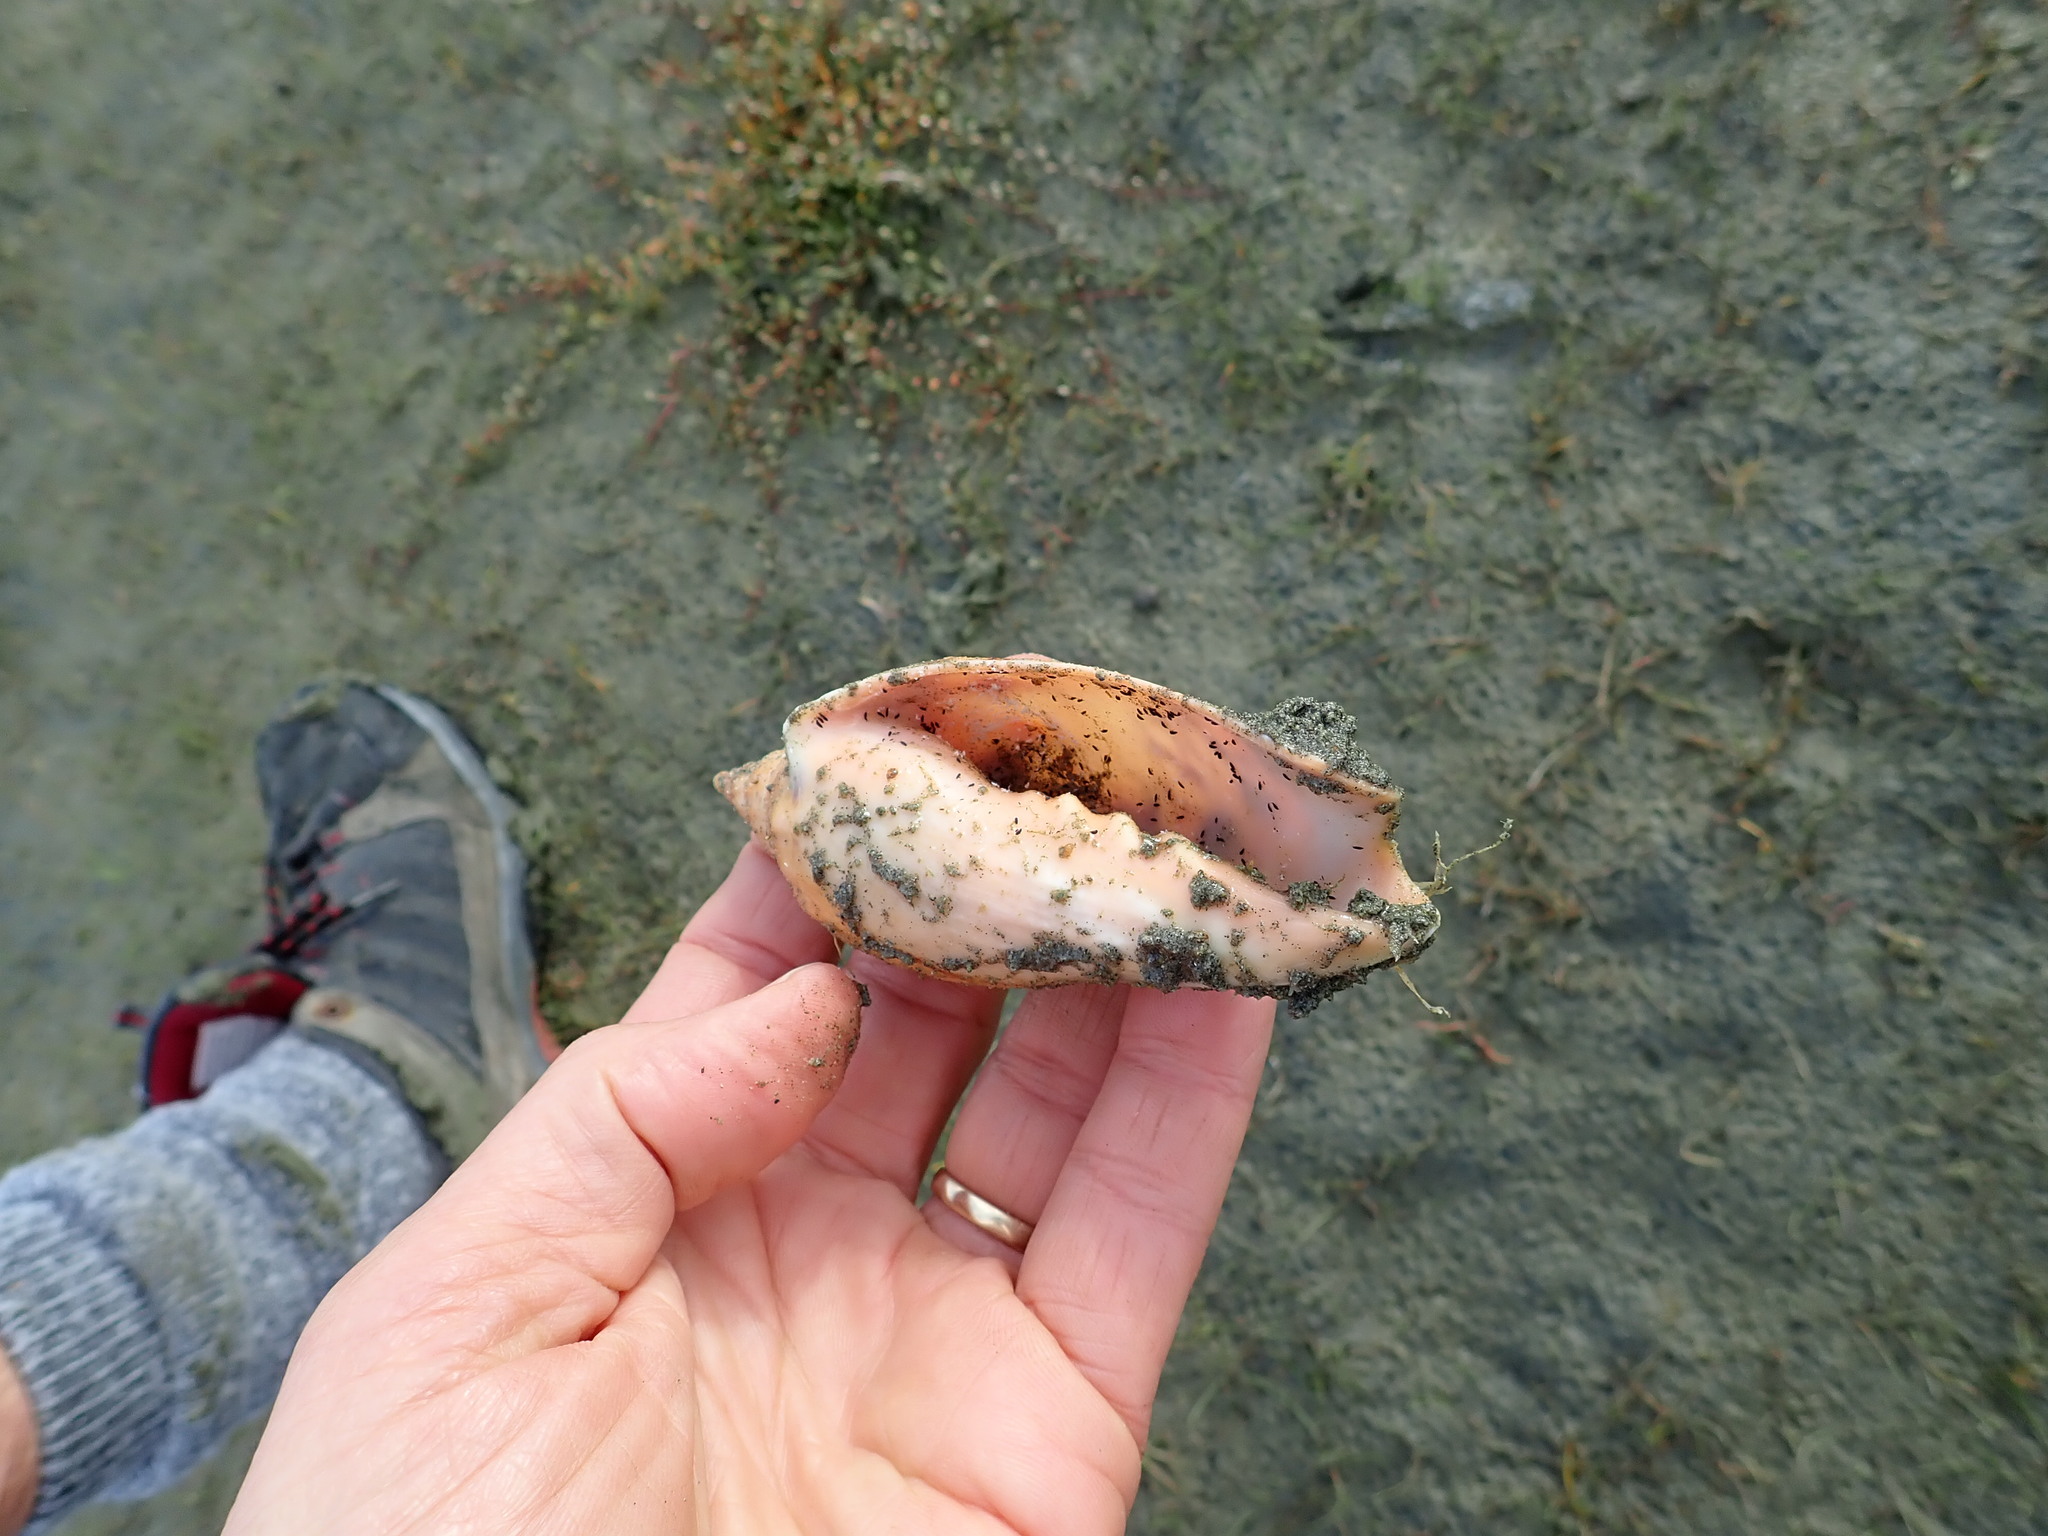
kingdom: Animalia
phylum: Mollusca
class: Gastropoda
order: Neogastropoda
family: Volutidae
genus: Alcithoe
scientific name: Alcithoe arabica
